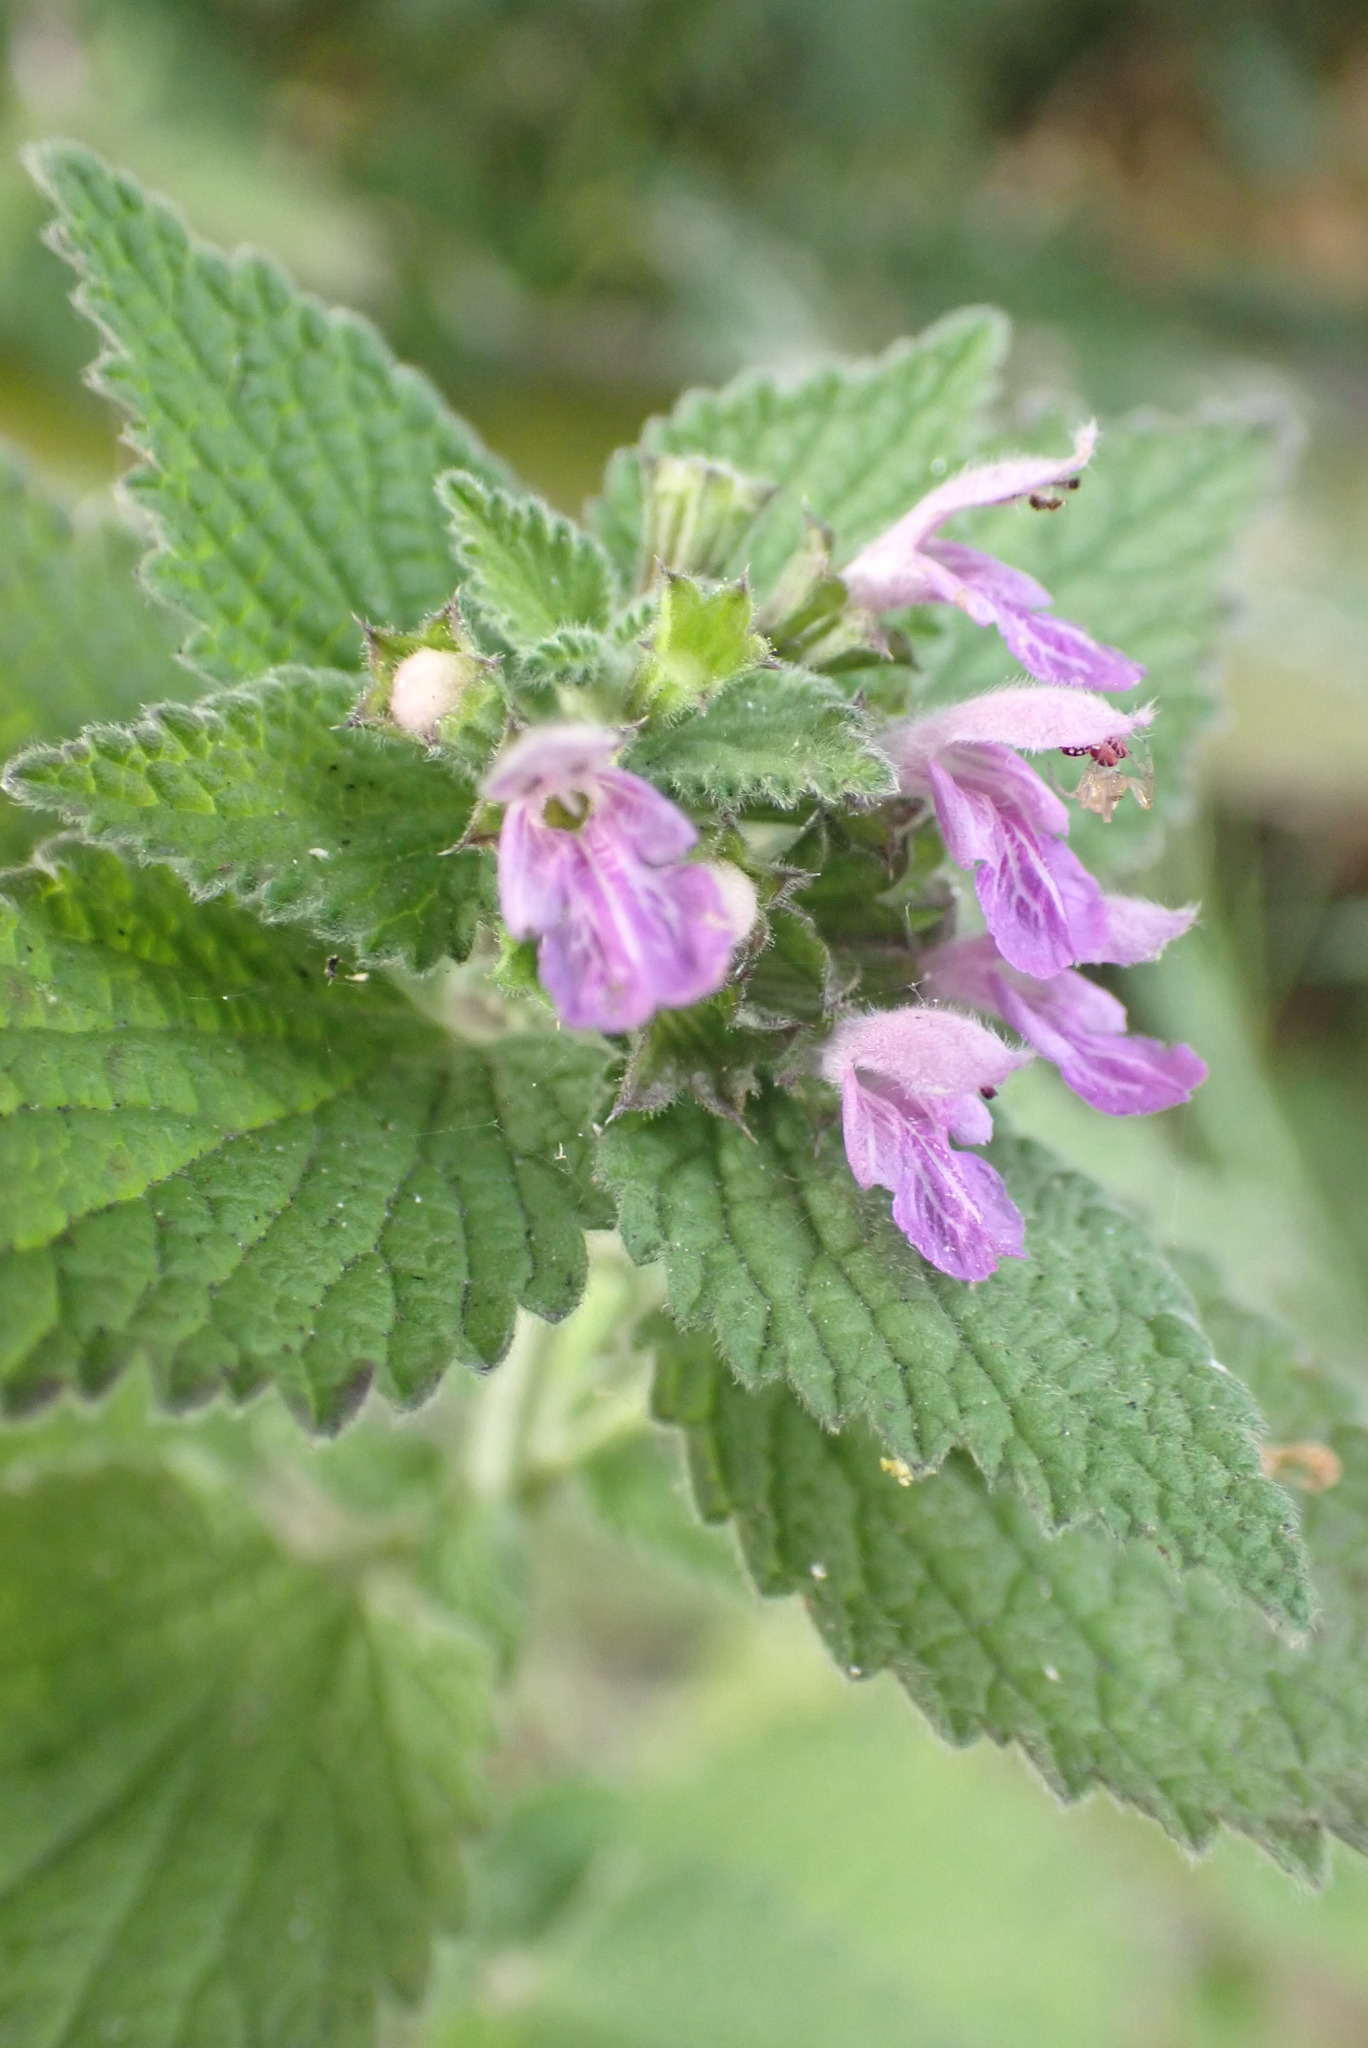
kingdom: Plantae
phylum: Tracheophyta
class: Magnoliopsida
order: Lamiales
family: Lamiaceae
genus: Ballota
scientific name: Ballota nigra
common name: Black horehound
